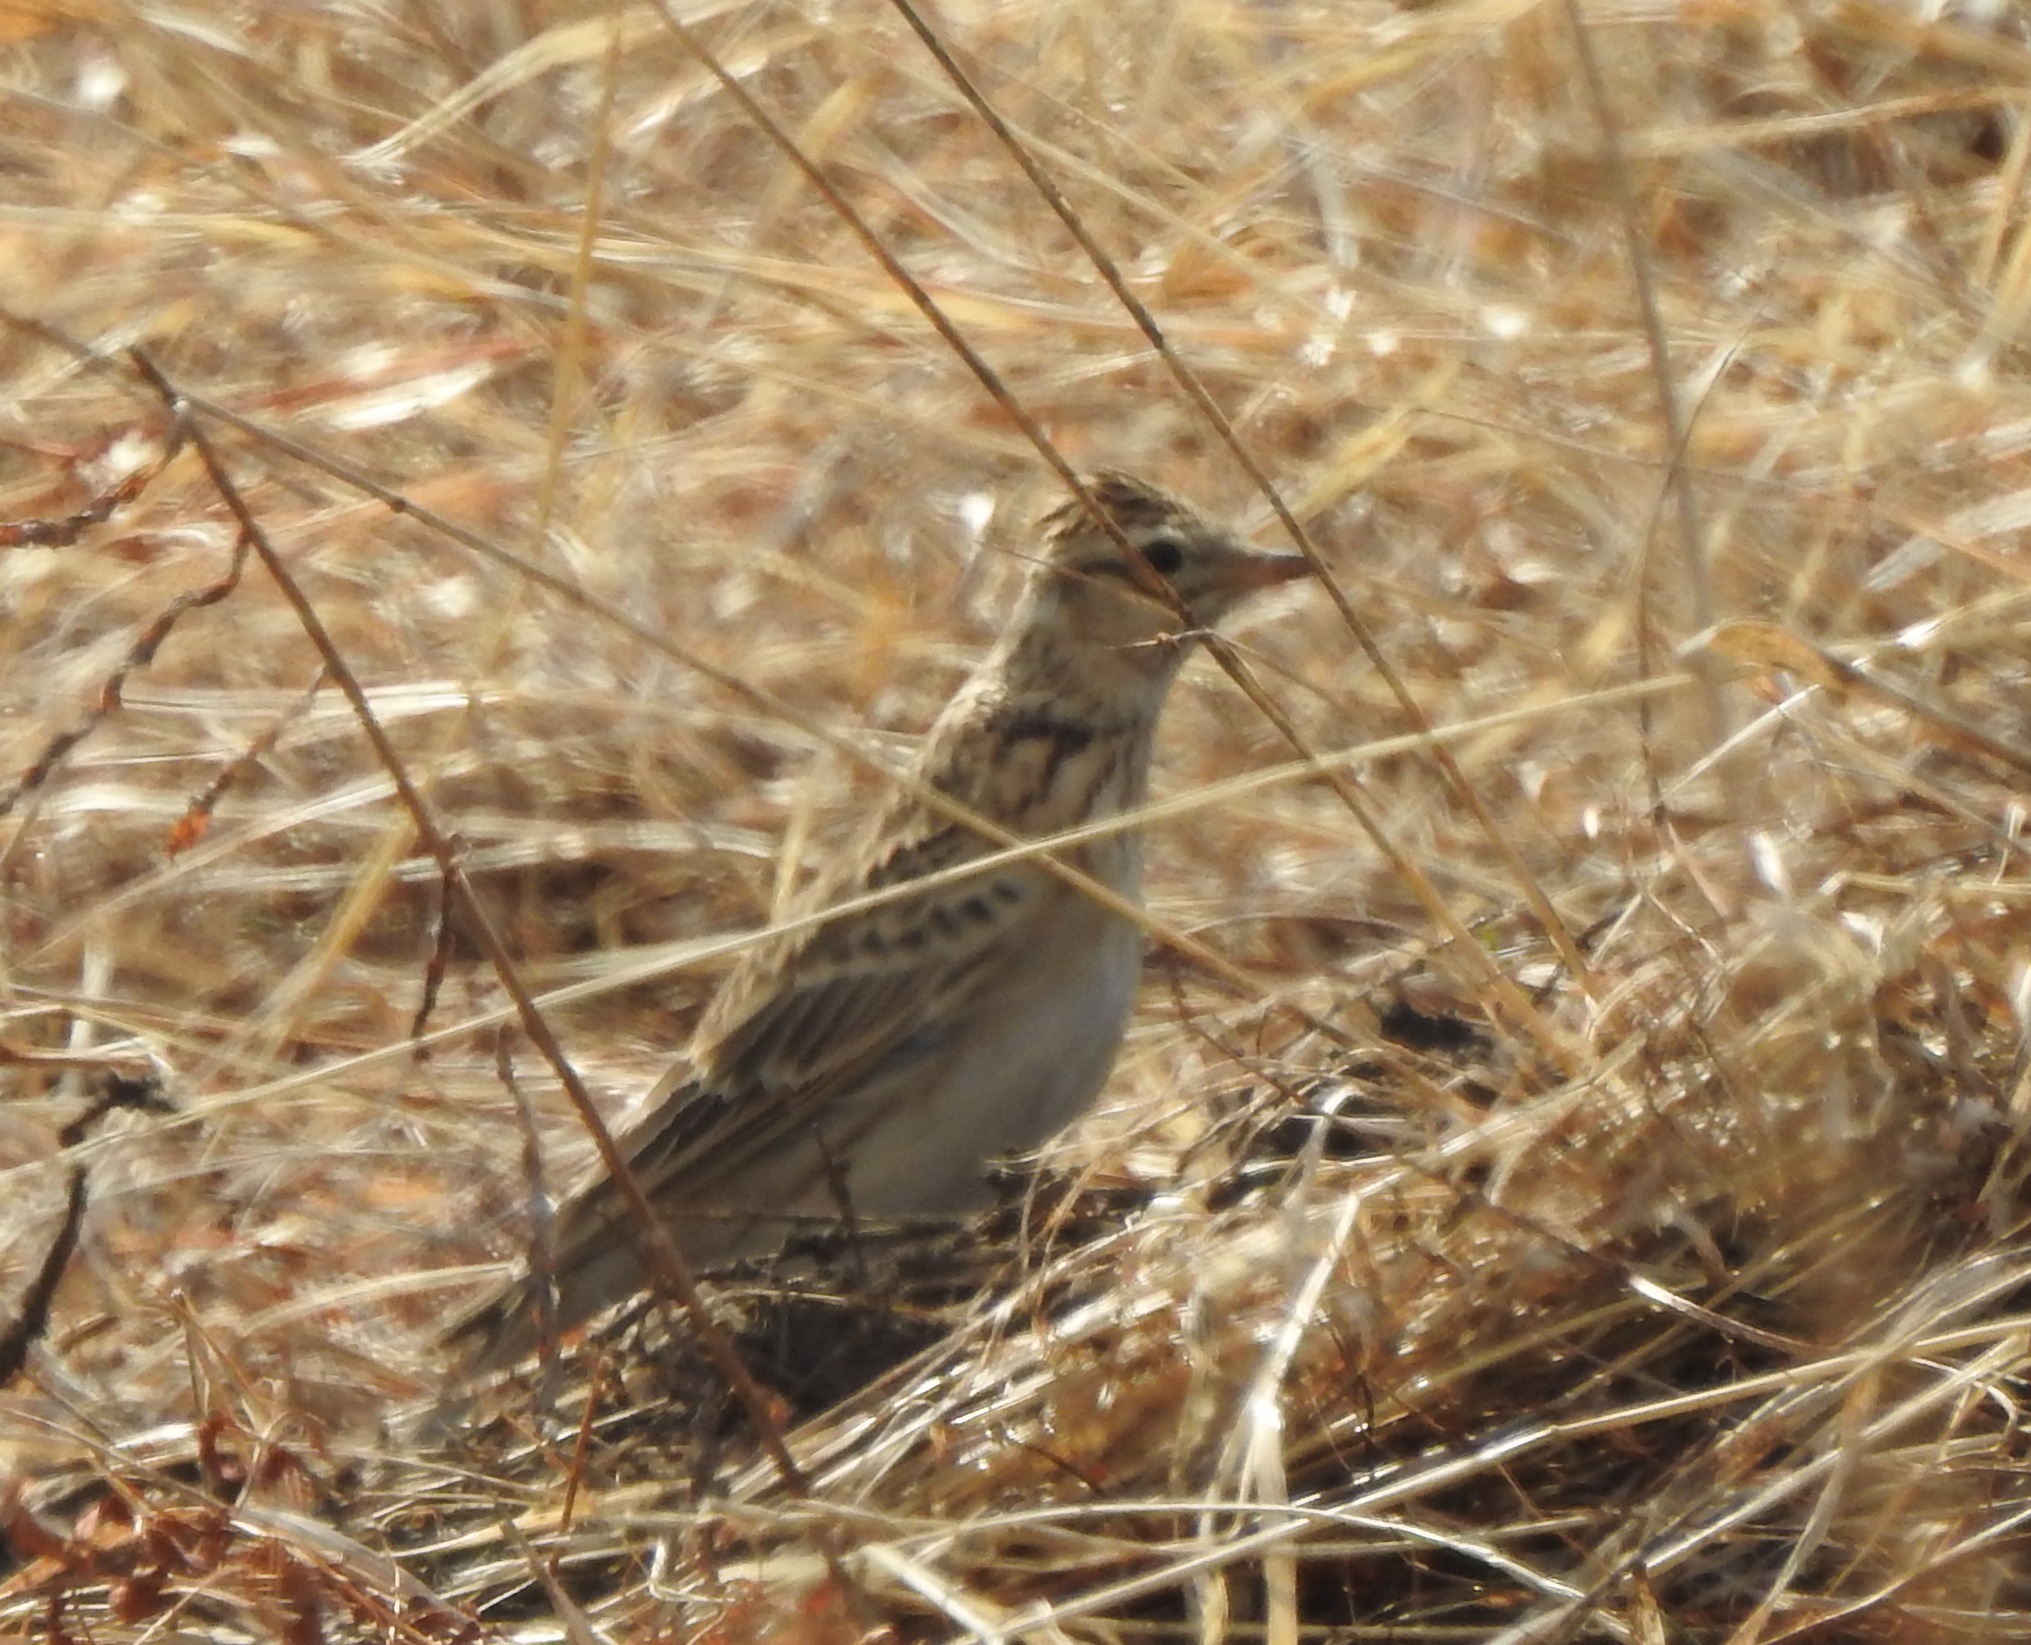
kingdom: Animalia
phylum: Chordata
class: Aves
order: Passeriformes
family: Alaudidae
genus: Alauda
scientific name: Alauda arvensis
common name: Eurasian skylark
